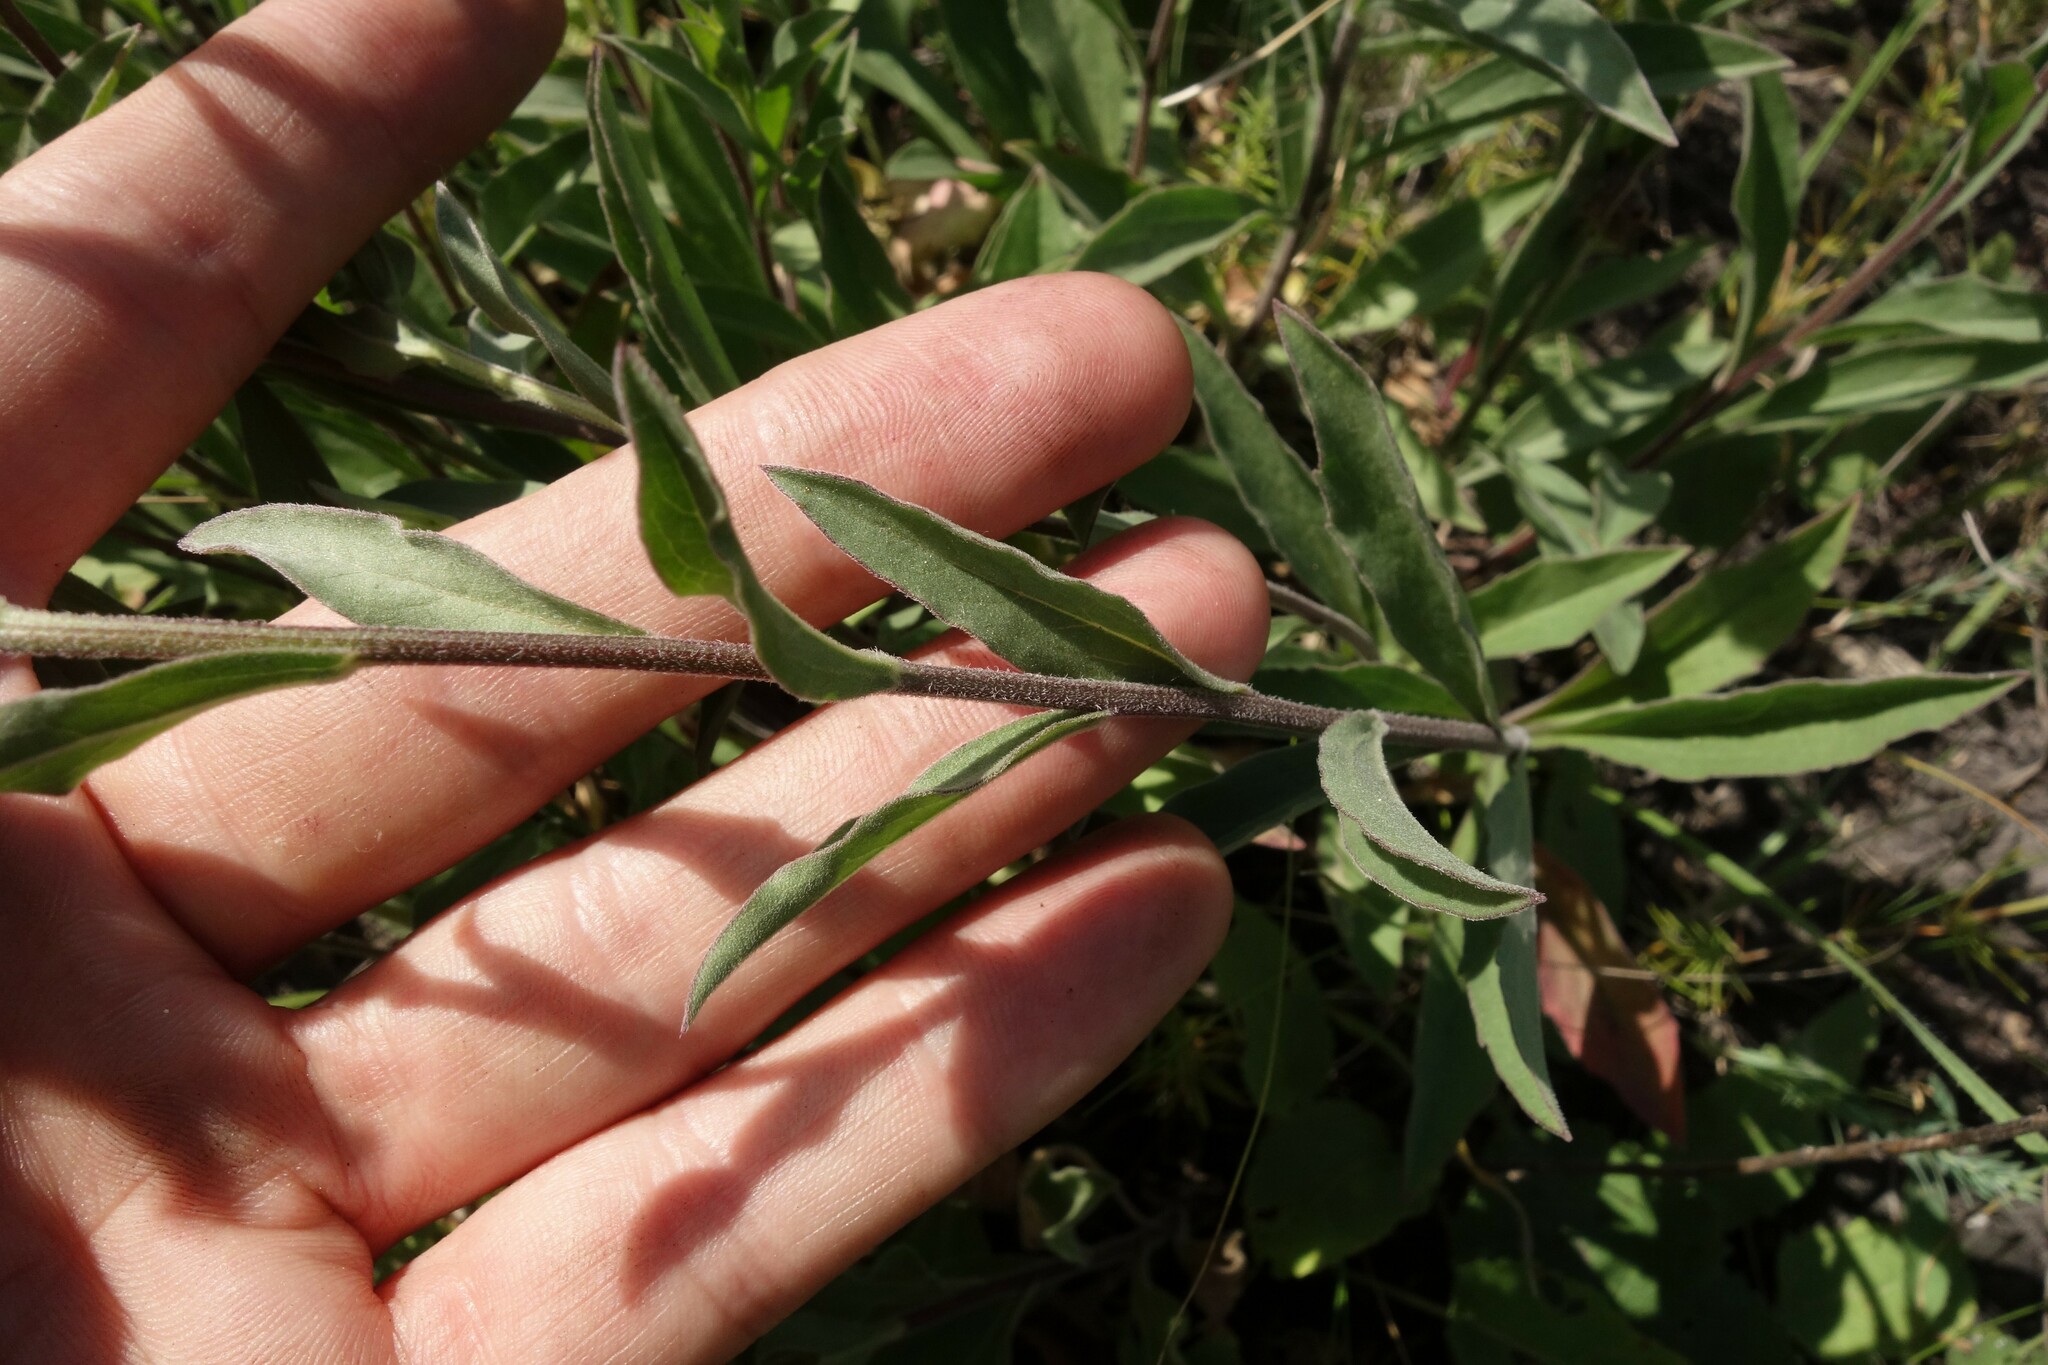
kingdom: Plantae
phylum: Tracheophyta
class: Magnoliopsida
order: Asterales
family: Asteraceae
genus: Aster
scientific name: Aster amellus
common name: European michaelmas daisy
